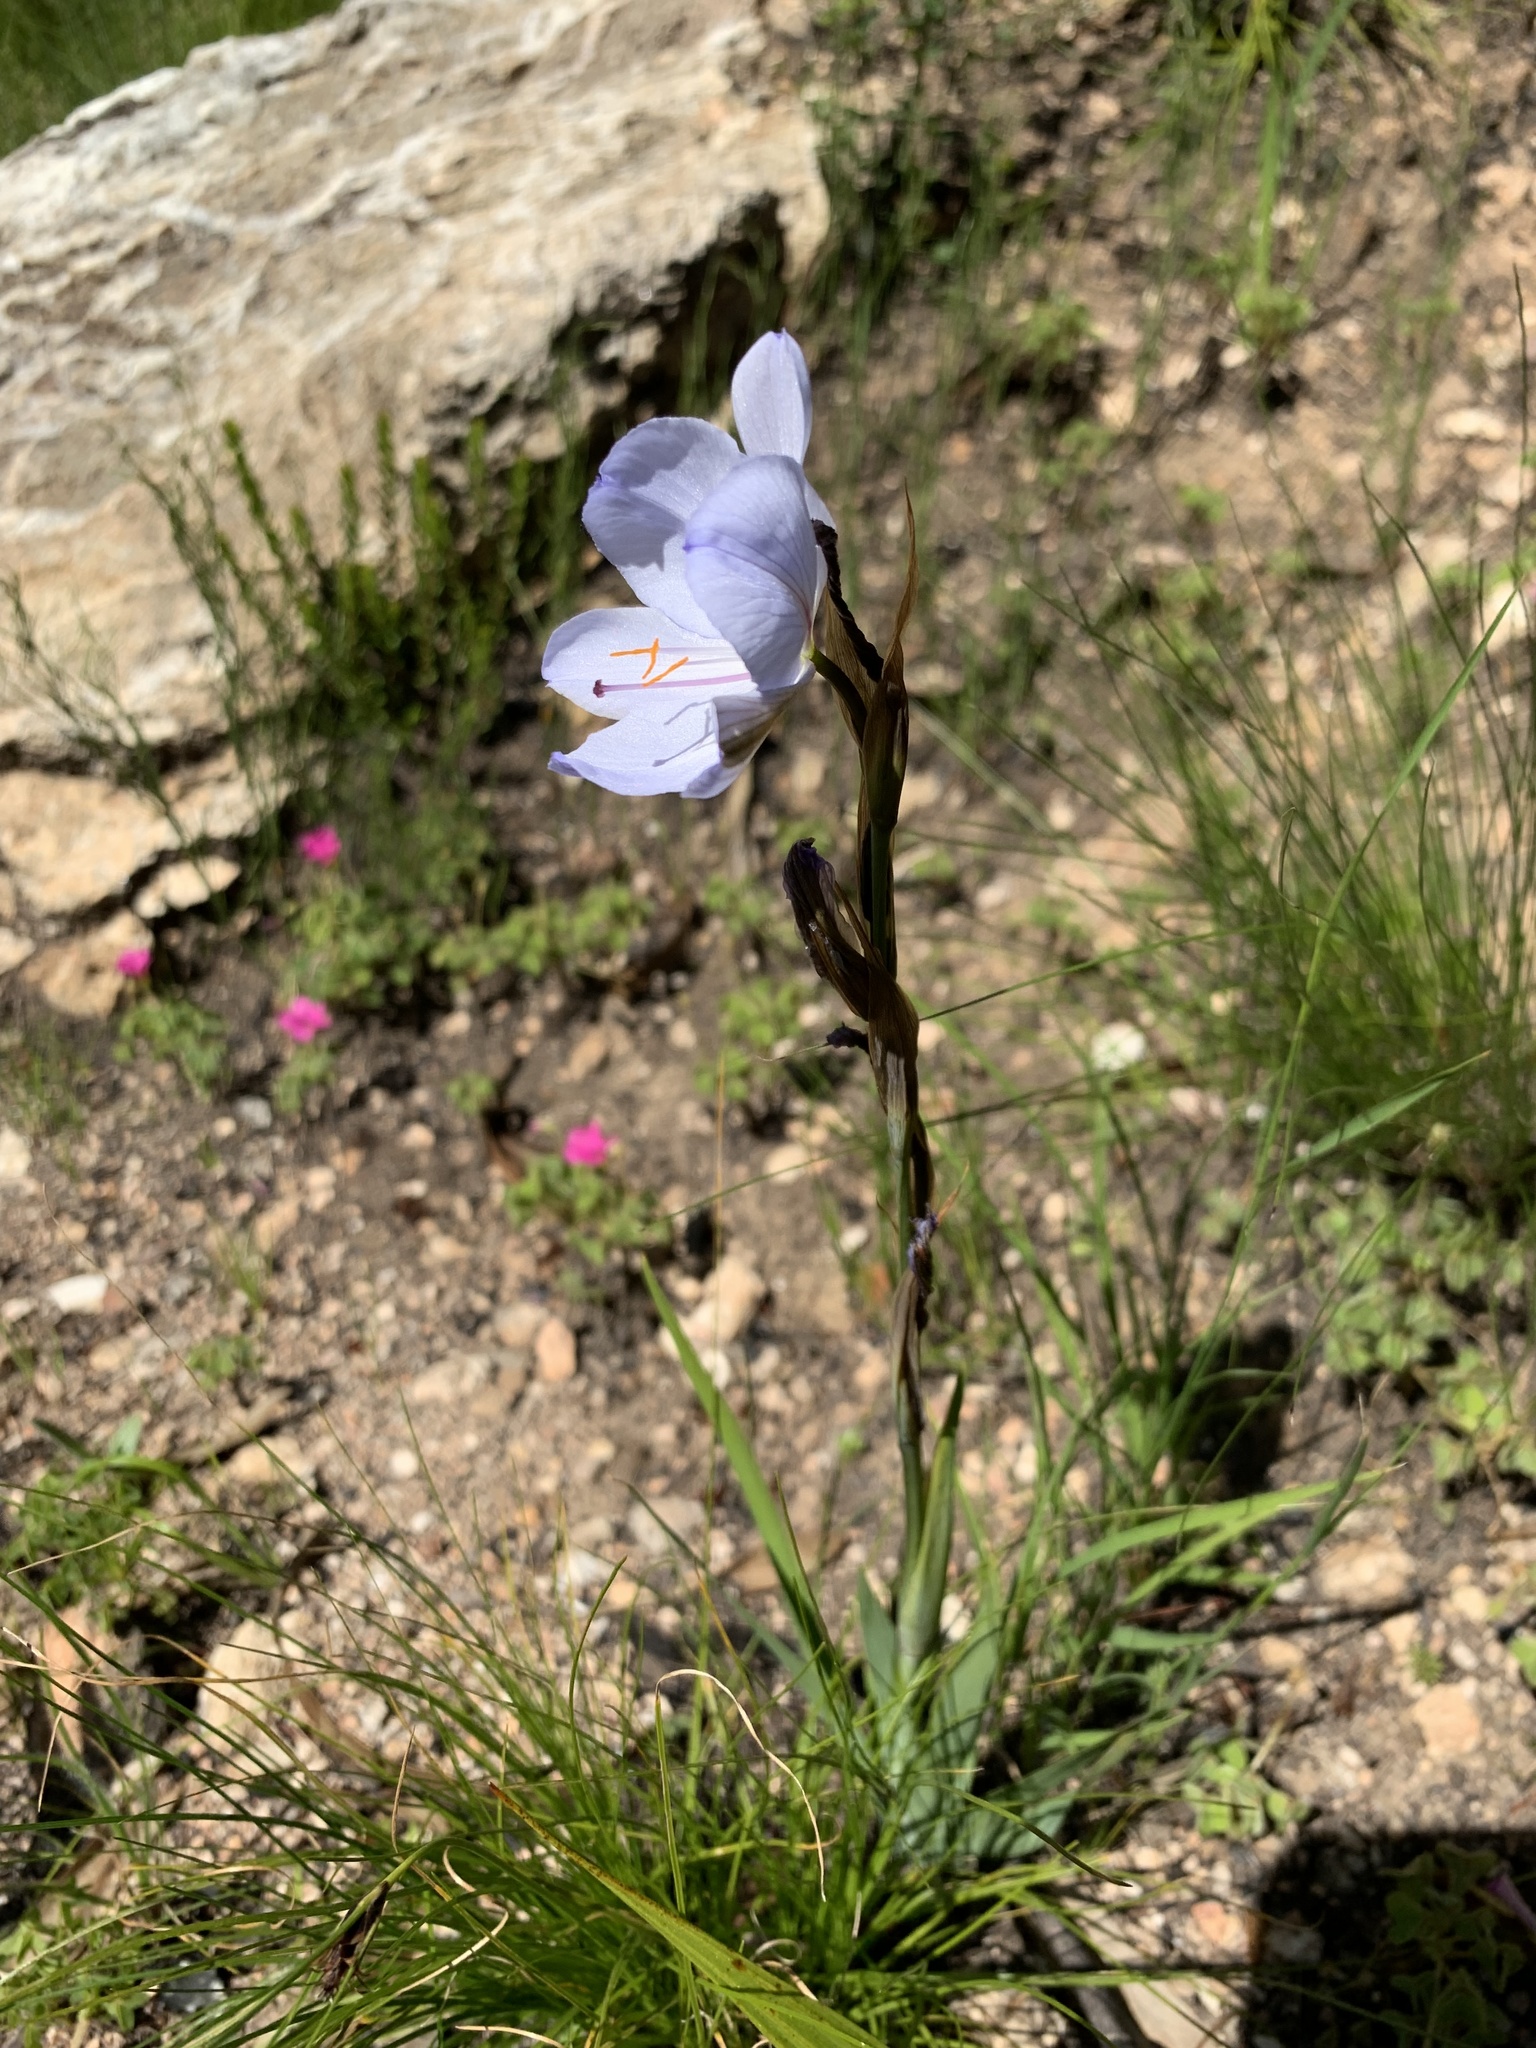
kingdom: Plantae
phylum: Tracheophyta
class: Liliopsida
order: Asparagales
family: Iridaceae
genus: Aristea
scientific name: Aristea spiralis
